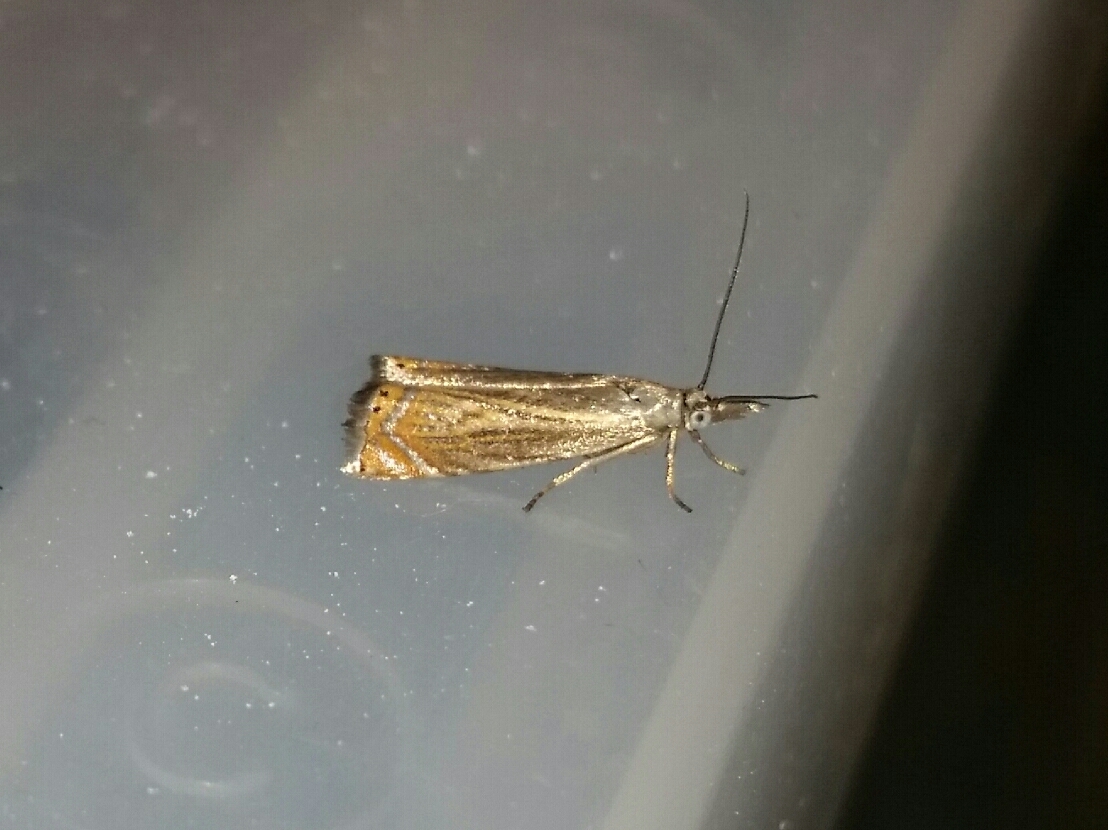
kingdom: Animalia
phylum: Arthropoda
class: Insecta
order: Lepidoptera
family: Crambidae
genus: Chrysoteuchia
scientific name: Chrysoteuchia topiarius
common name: Topiary grass-veneer
